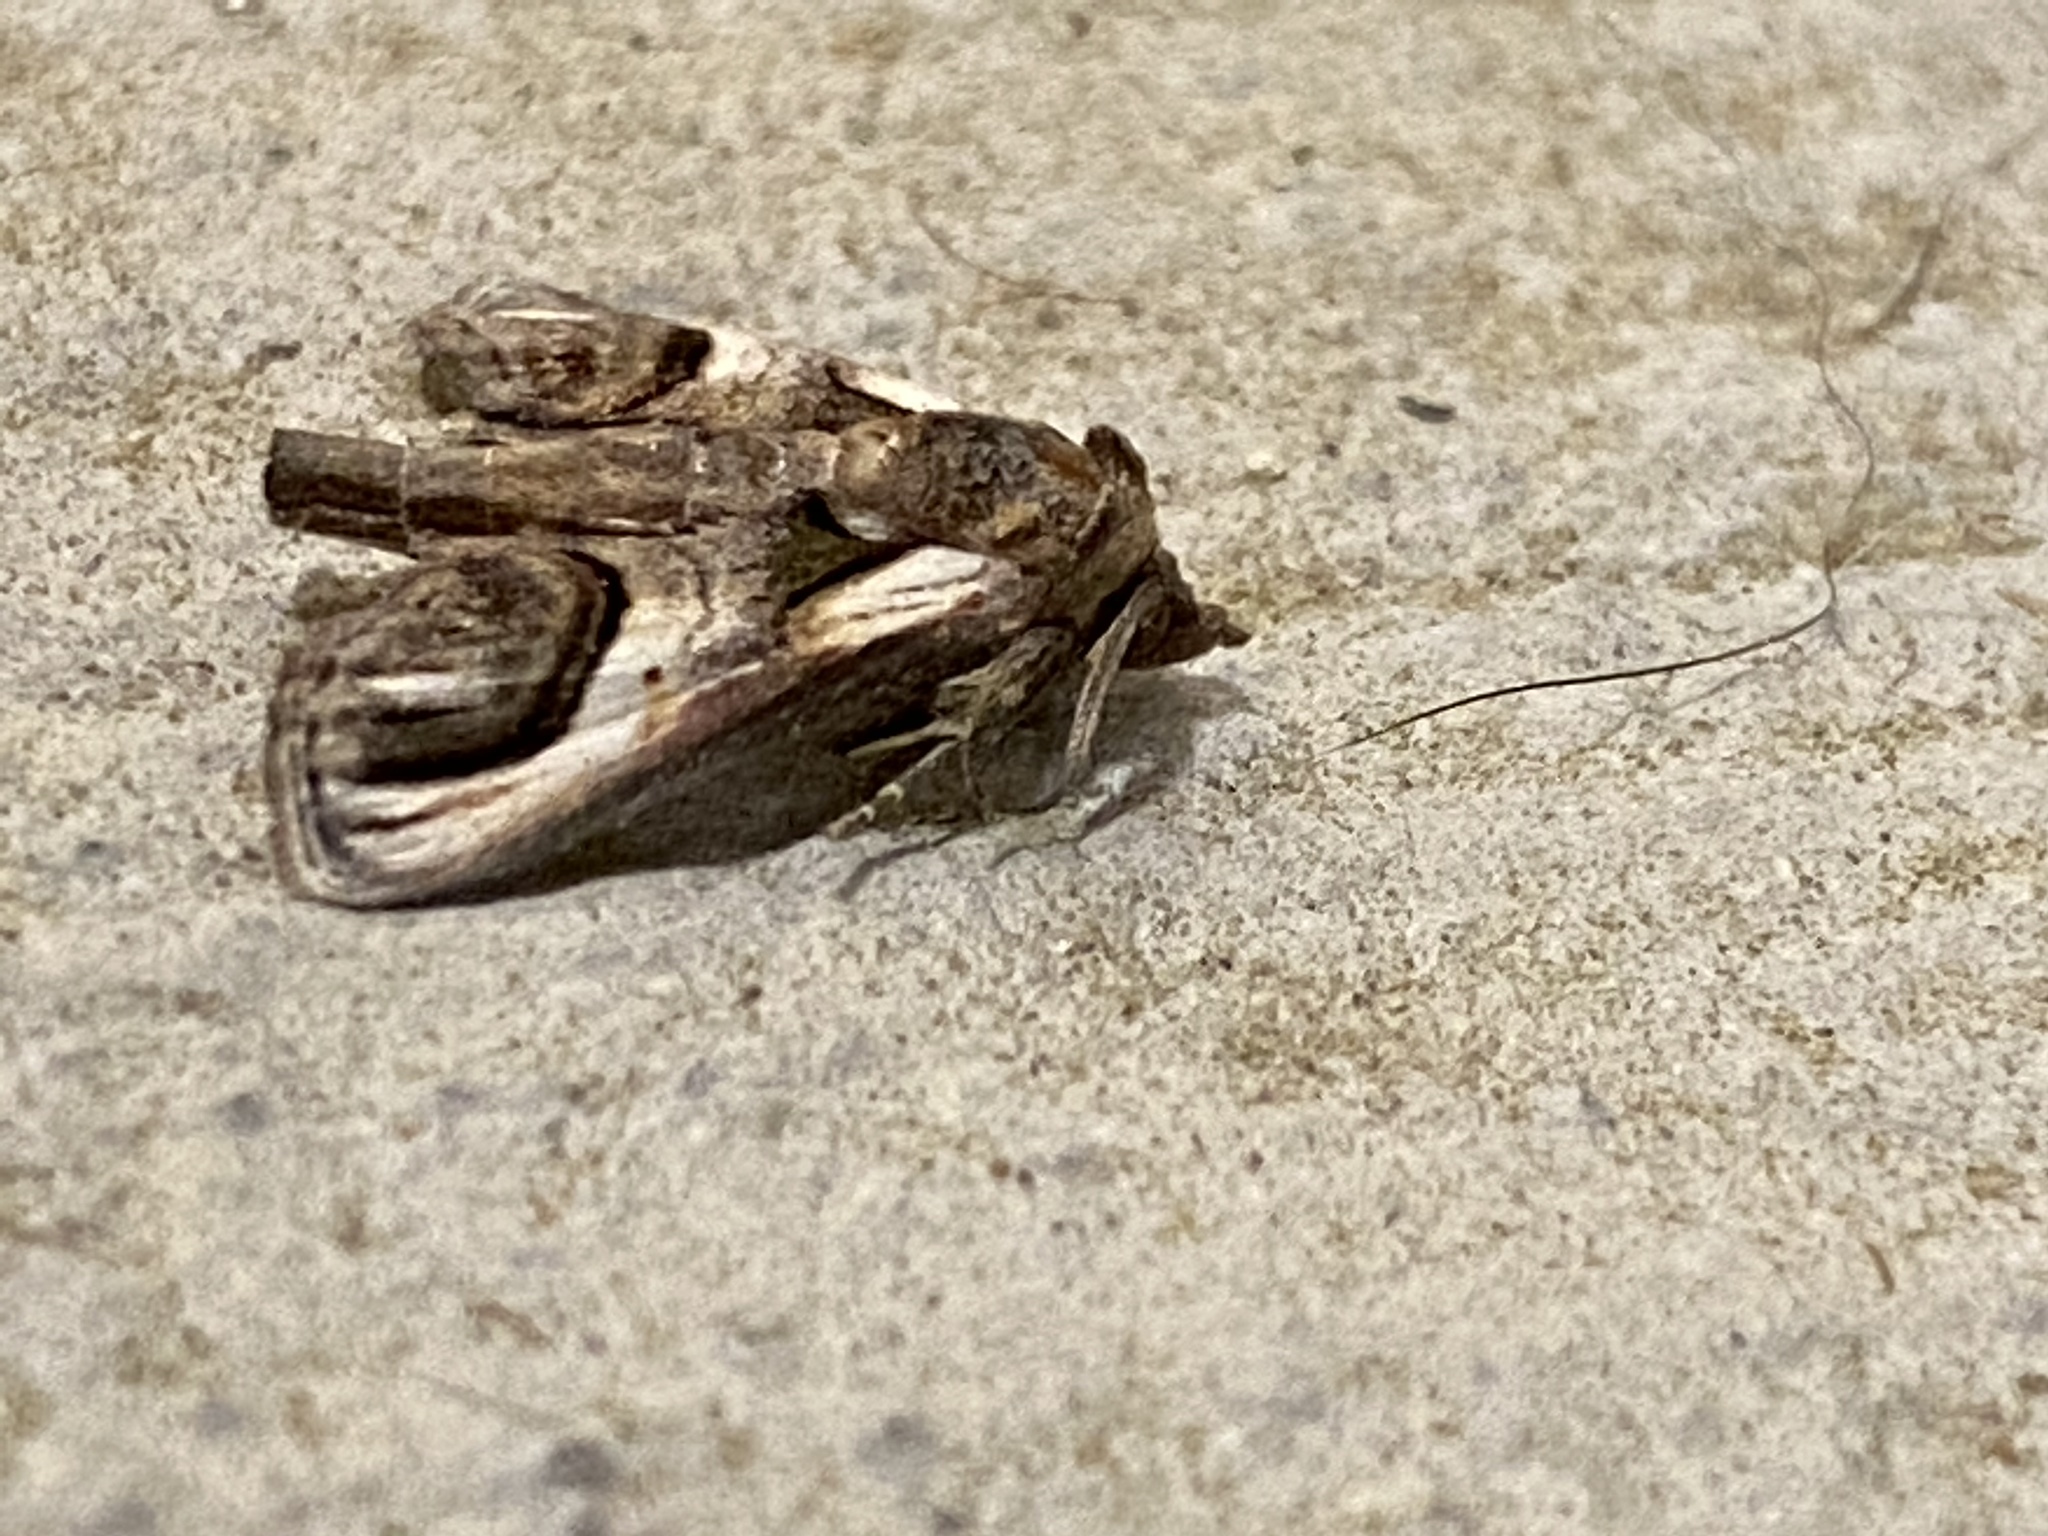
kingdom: Animalia
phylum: Arthropoda
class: Insecta
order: Lepidoptera
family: Euteliidae
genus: Paectes
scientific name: Paectes oculatrix
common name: Eyed paectes moth
